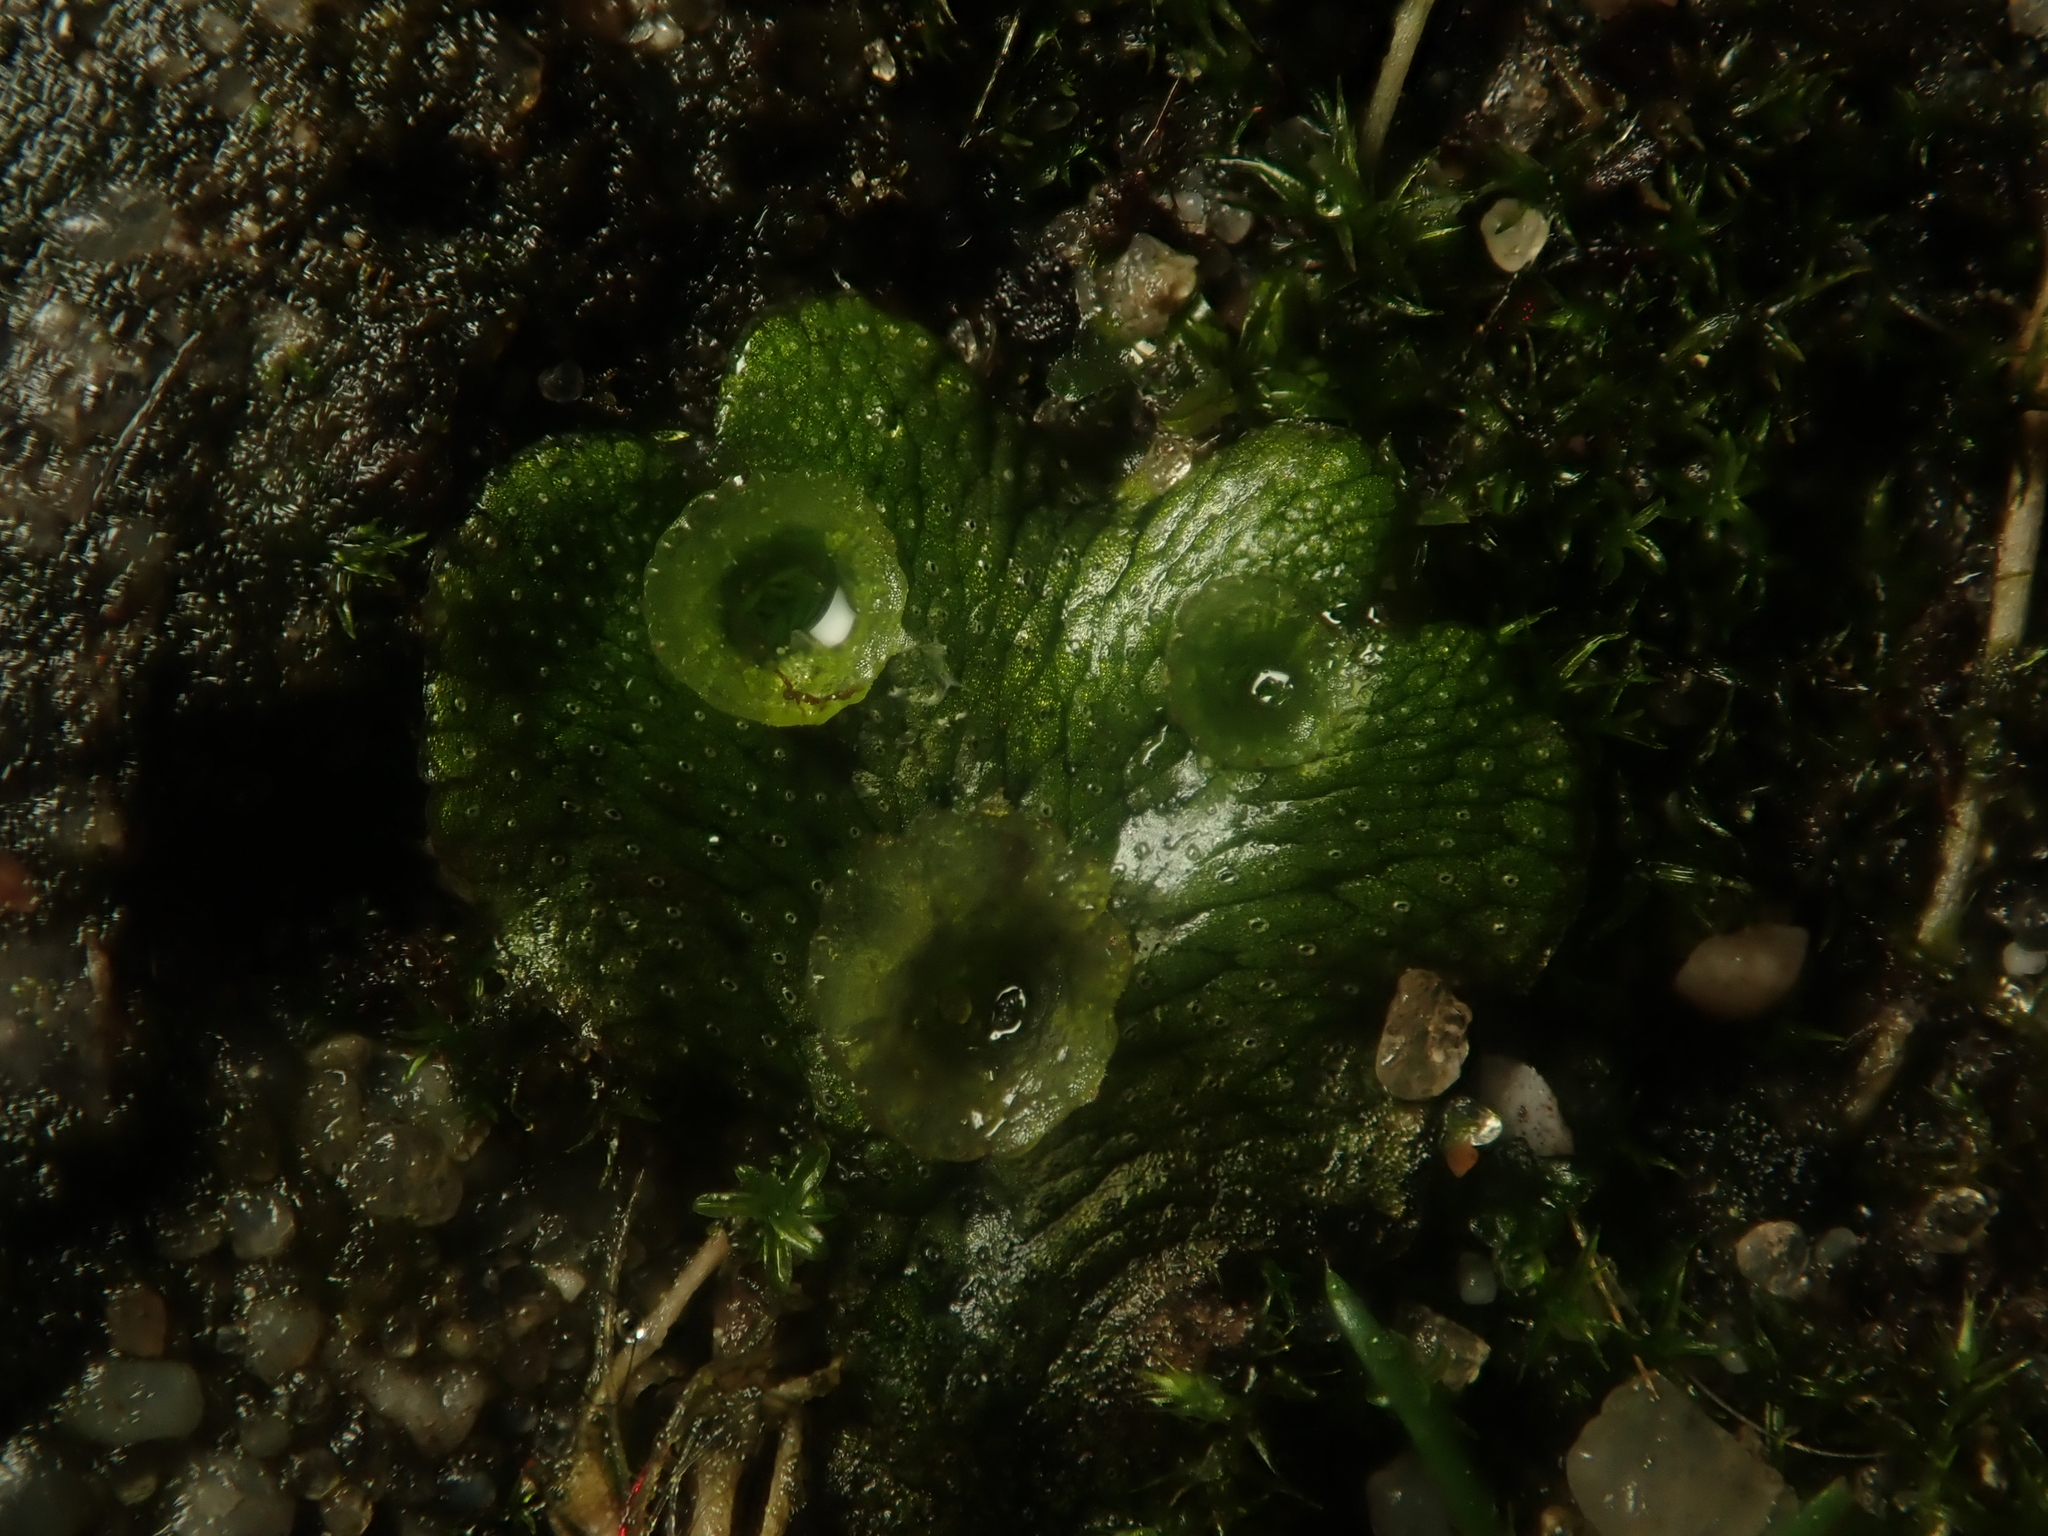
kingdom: Plantae
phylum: Marchantiophyta
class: Marchantiopsida
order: Marchantiales
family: Marchantiaceae
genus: Marchantia
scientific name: Marchantia polymorpha
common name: Common liverwort
